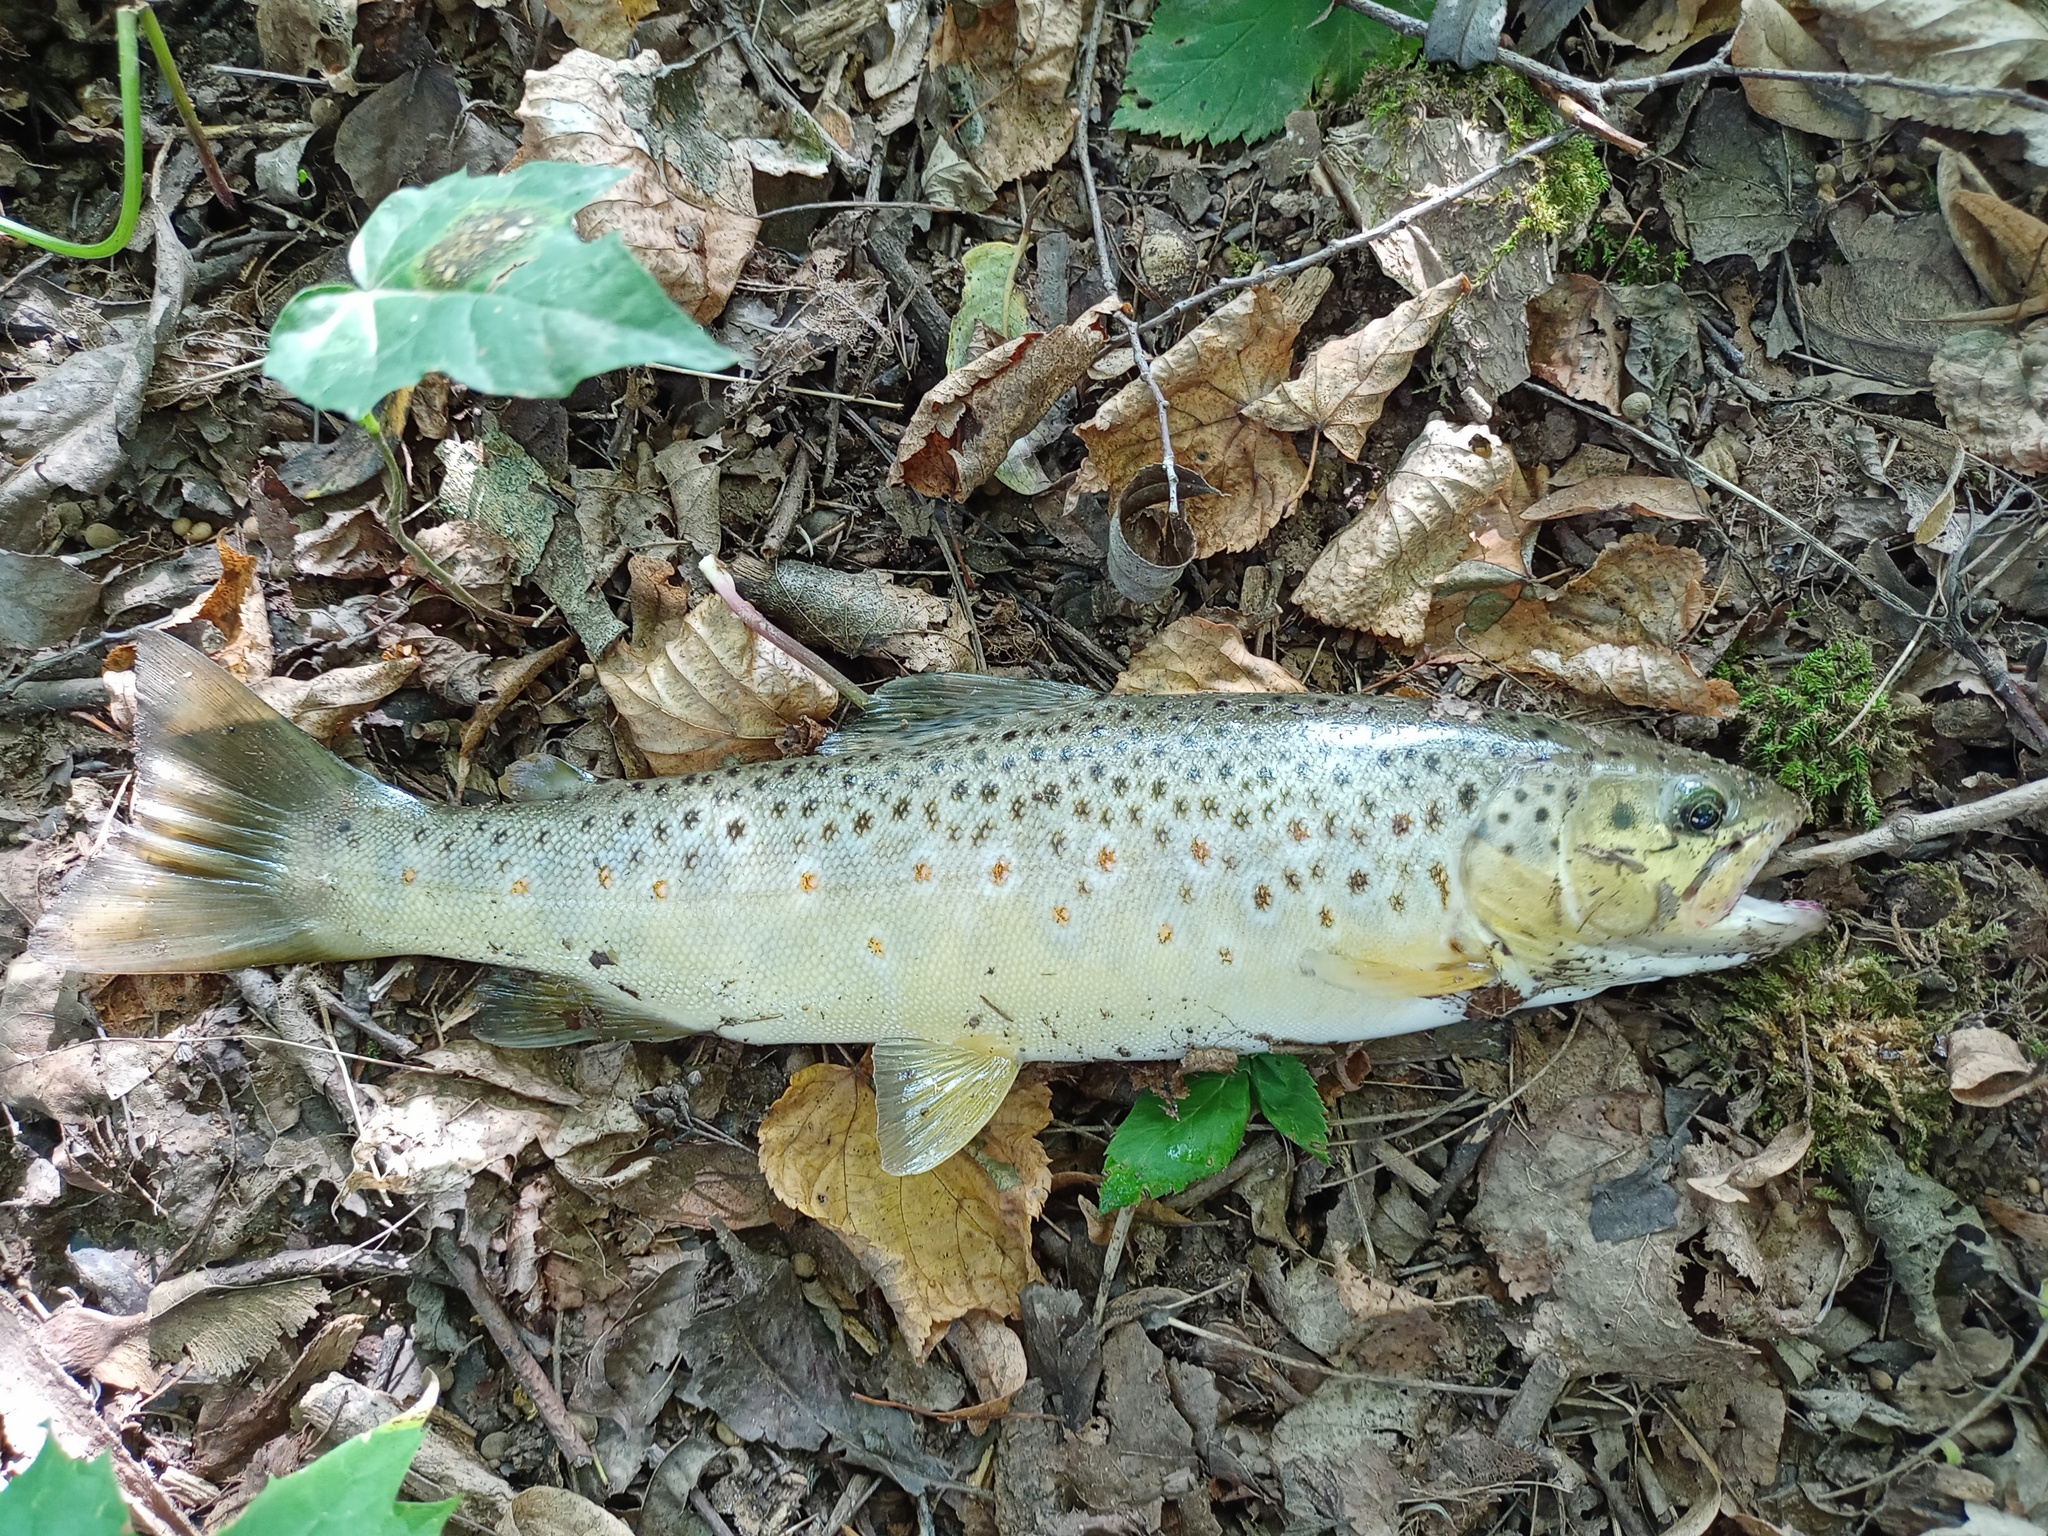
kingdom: Animalia
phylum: Chordata
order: Salmoniformes
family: Salmonidae
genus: Salmo
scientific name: Salmo trutta
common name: Brown trout
